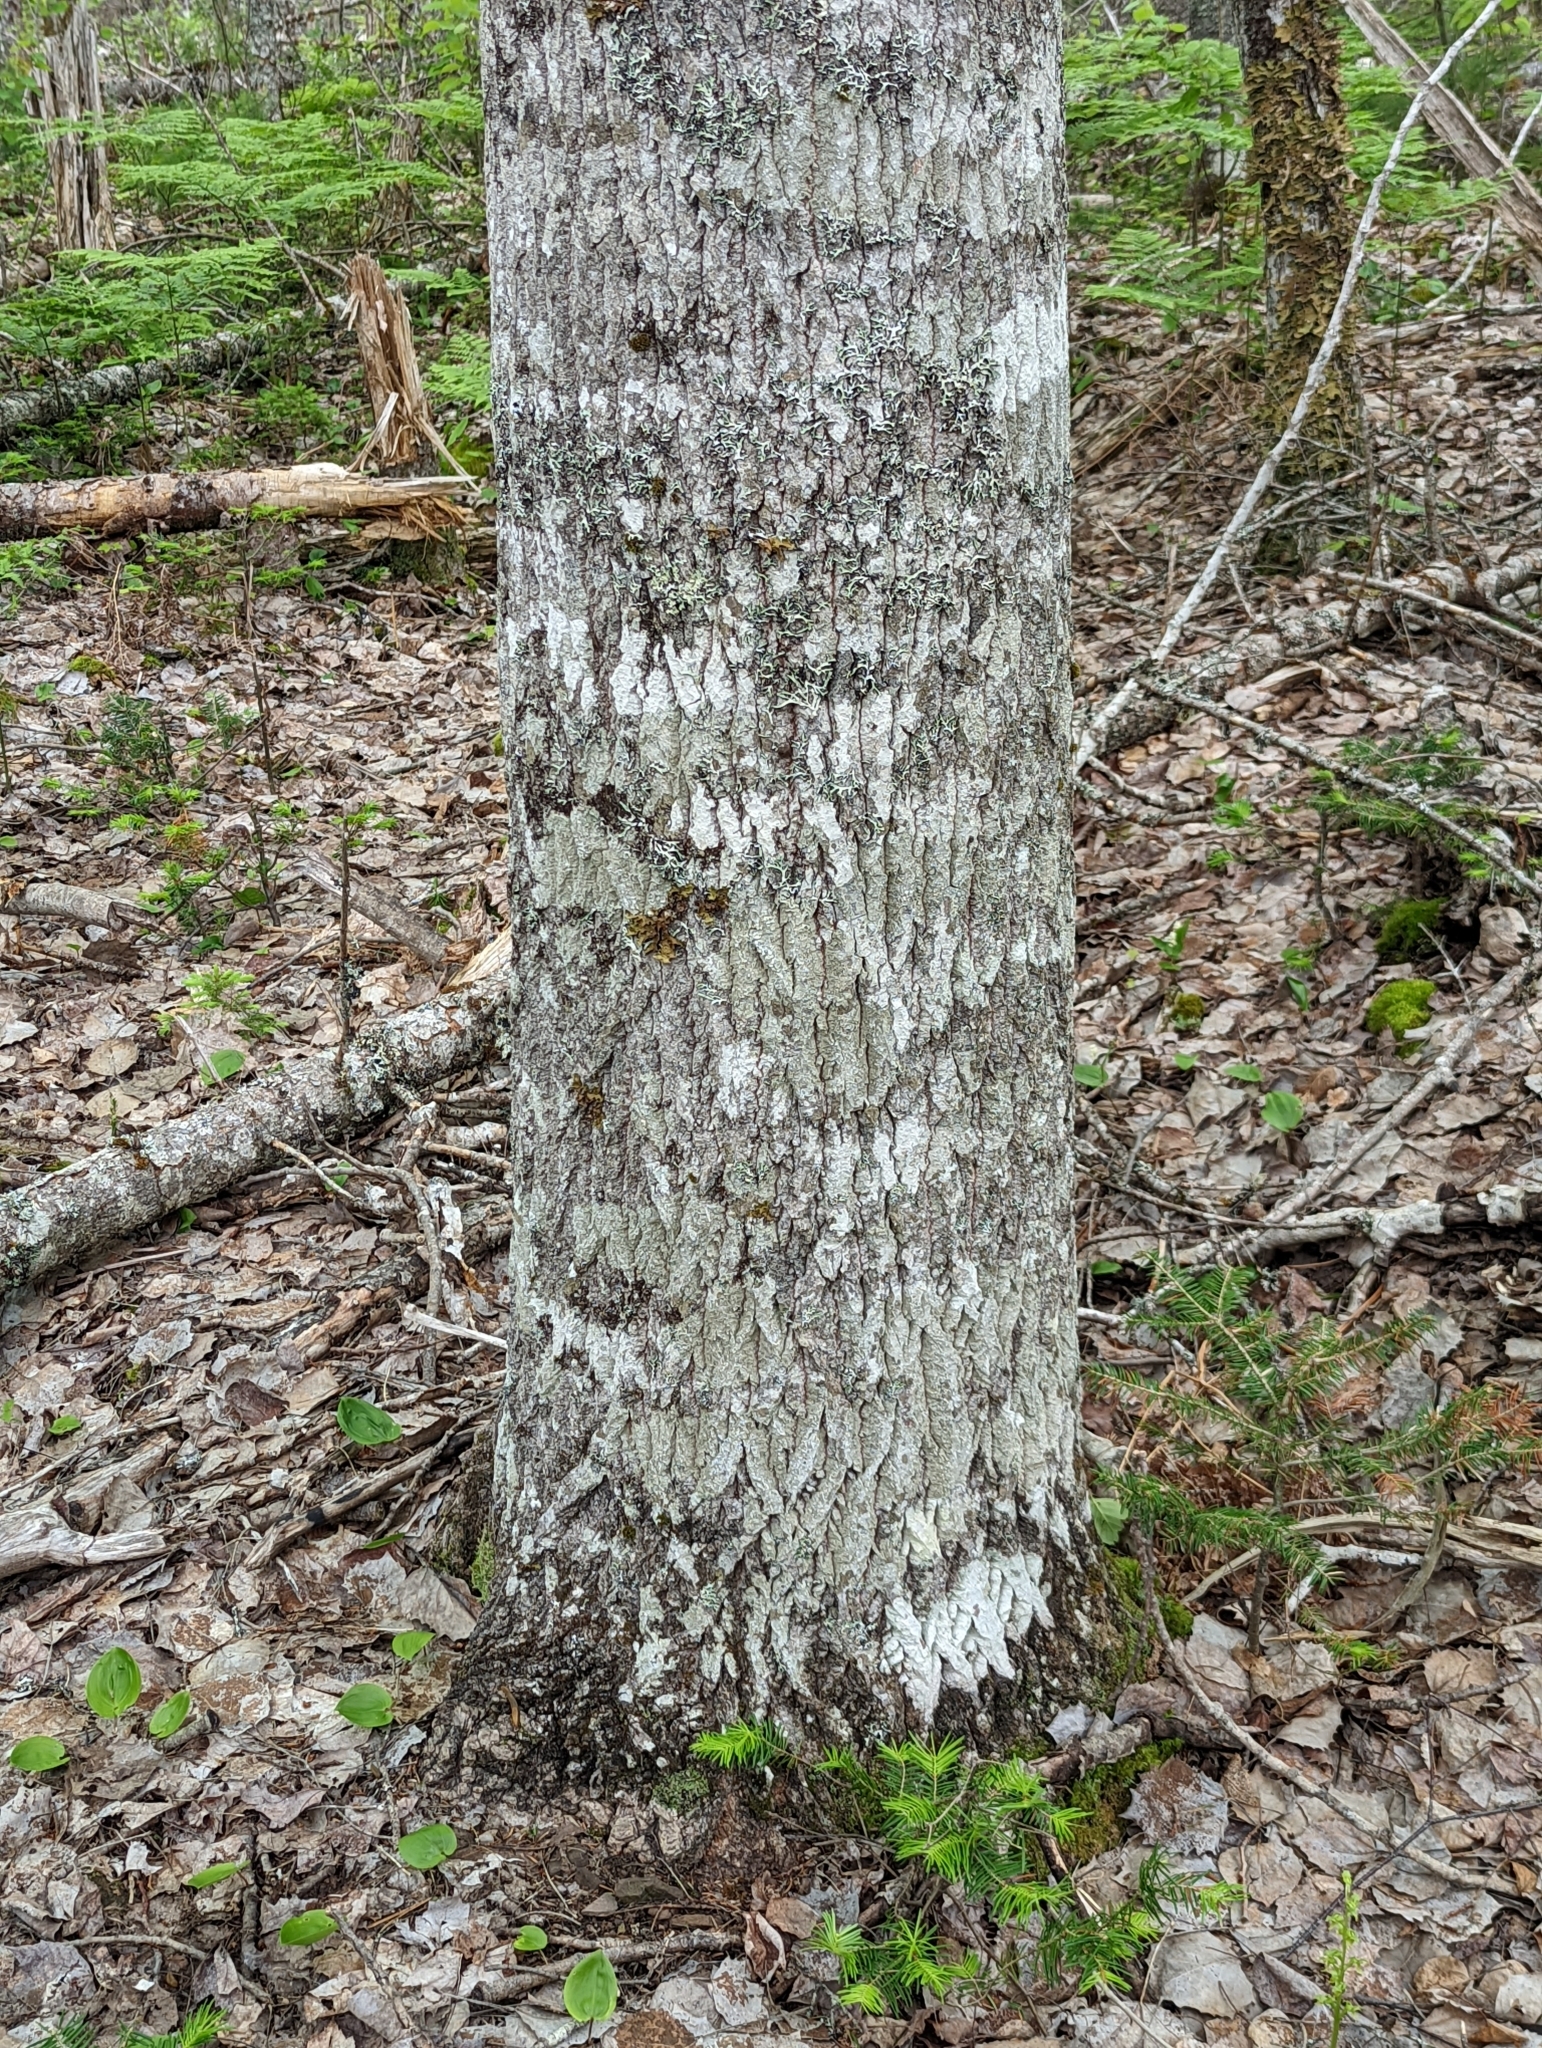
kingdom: Plantae
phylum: Tracheophyta
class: Magnoliopsida
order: Malpighiales
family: Salicaceae
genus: Populus
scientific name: Populus grandidentata
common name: Bigtooth aspen
